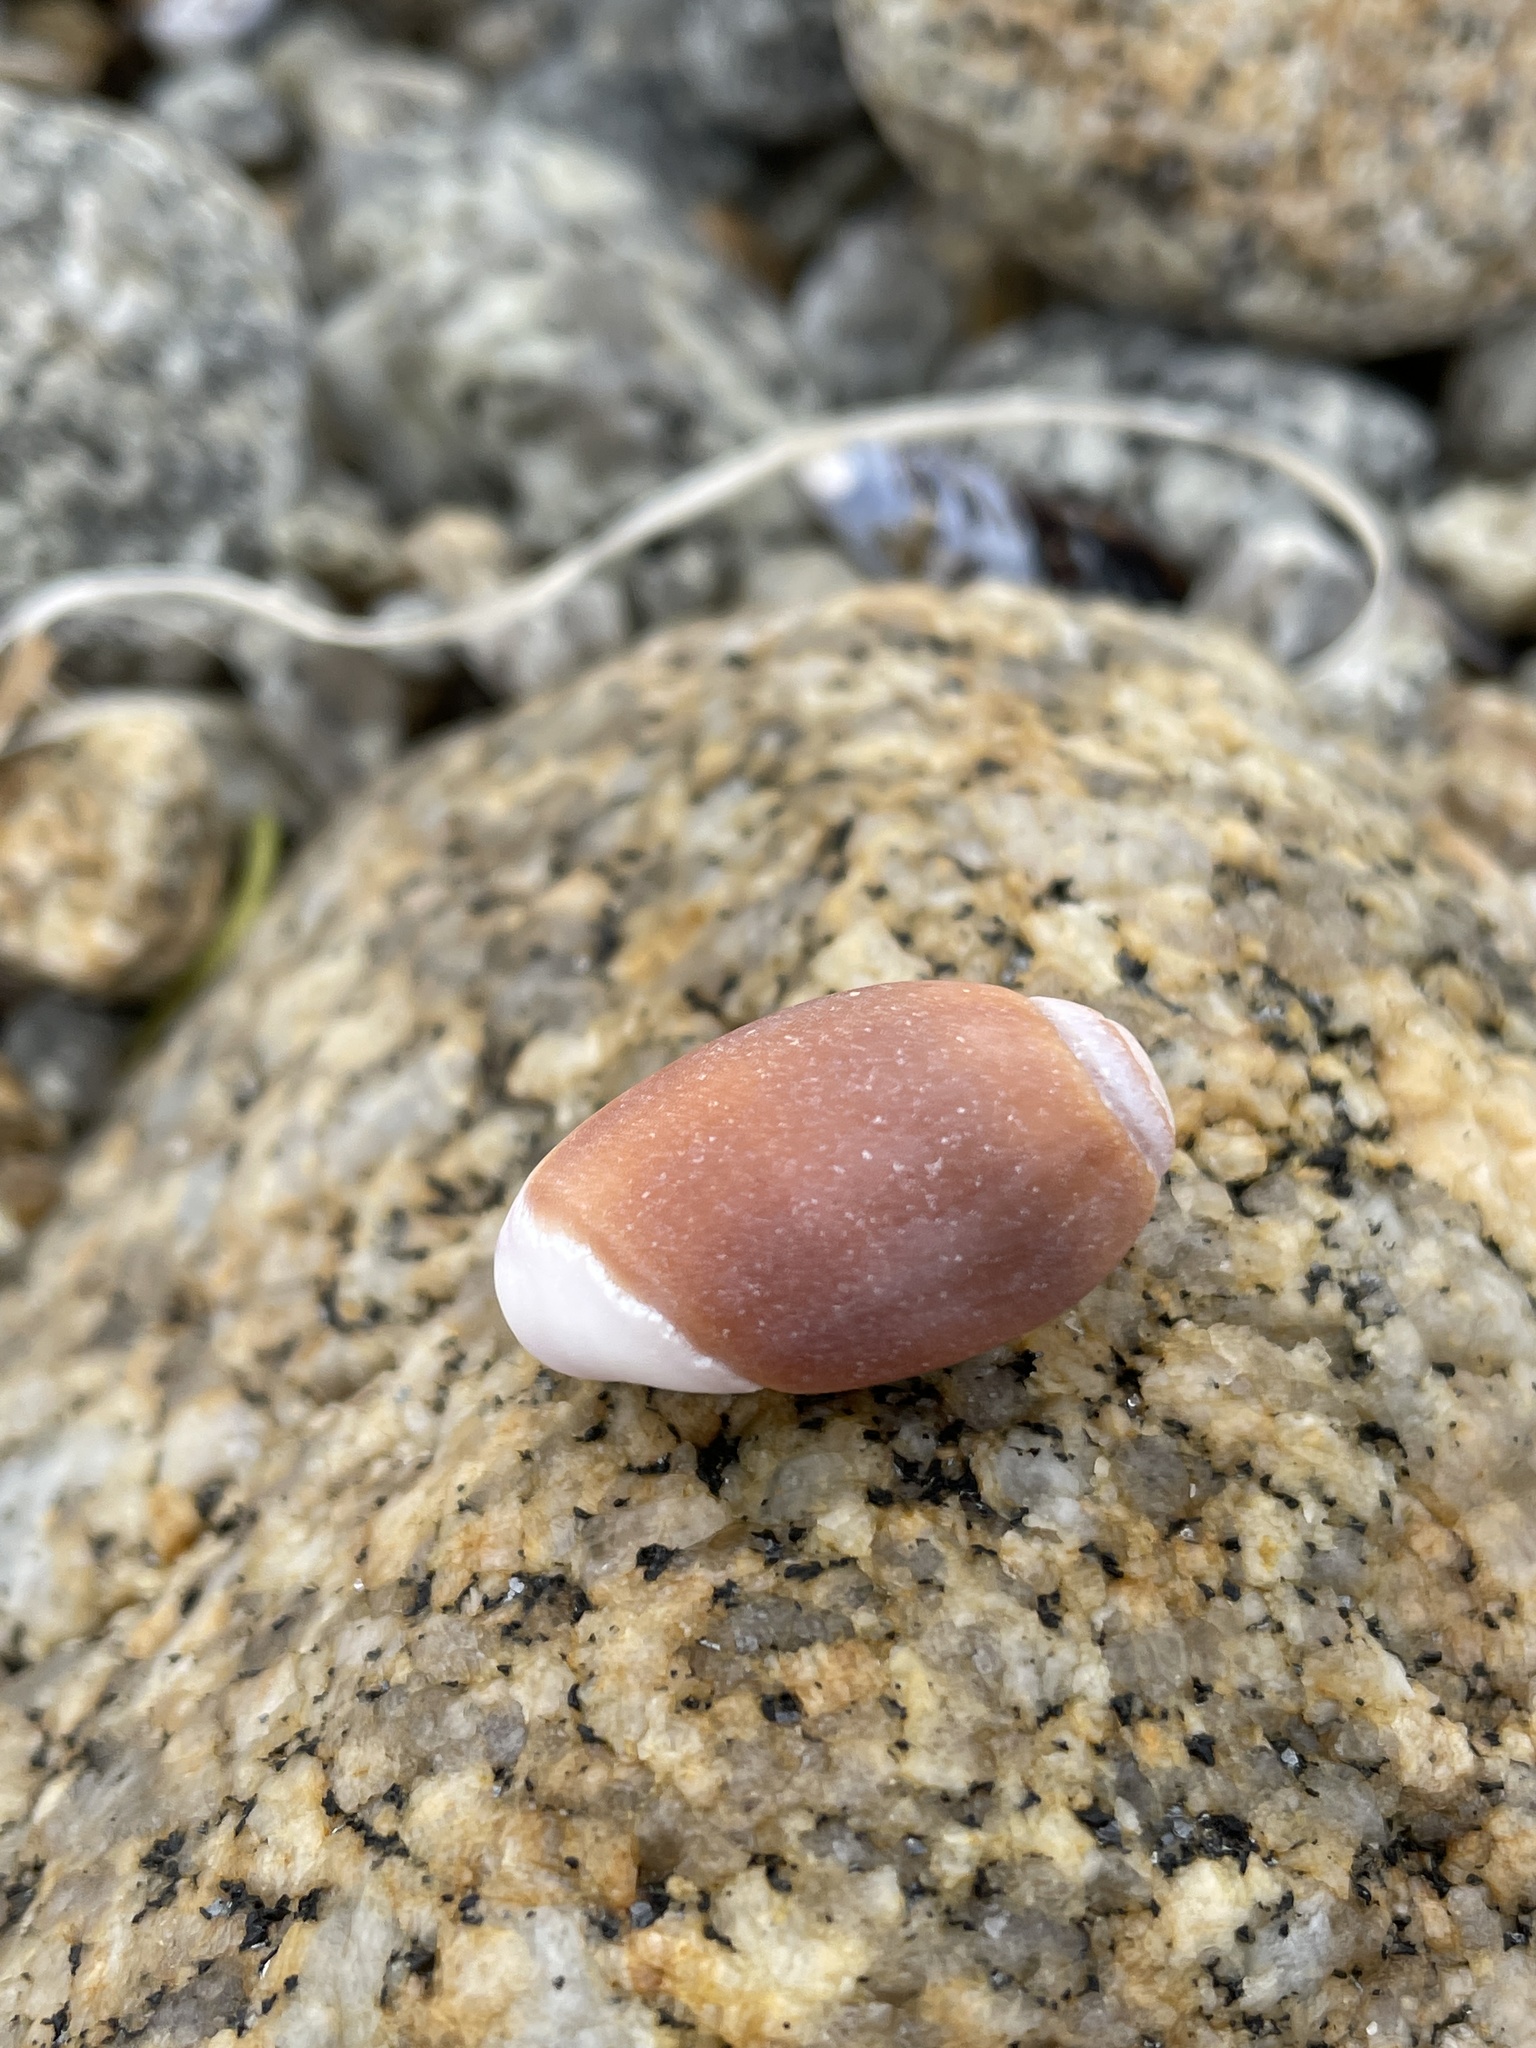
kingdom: Animalia
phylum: Mollusca
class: Gastropoda
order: Neogastropoda
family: Olividae
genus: Callianax
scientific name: Callianax biplicata
